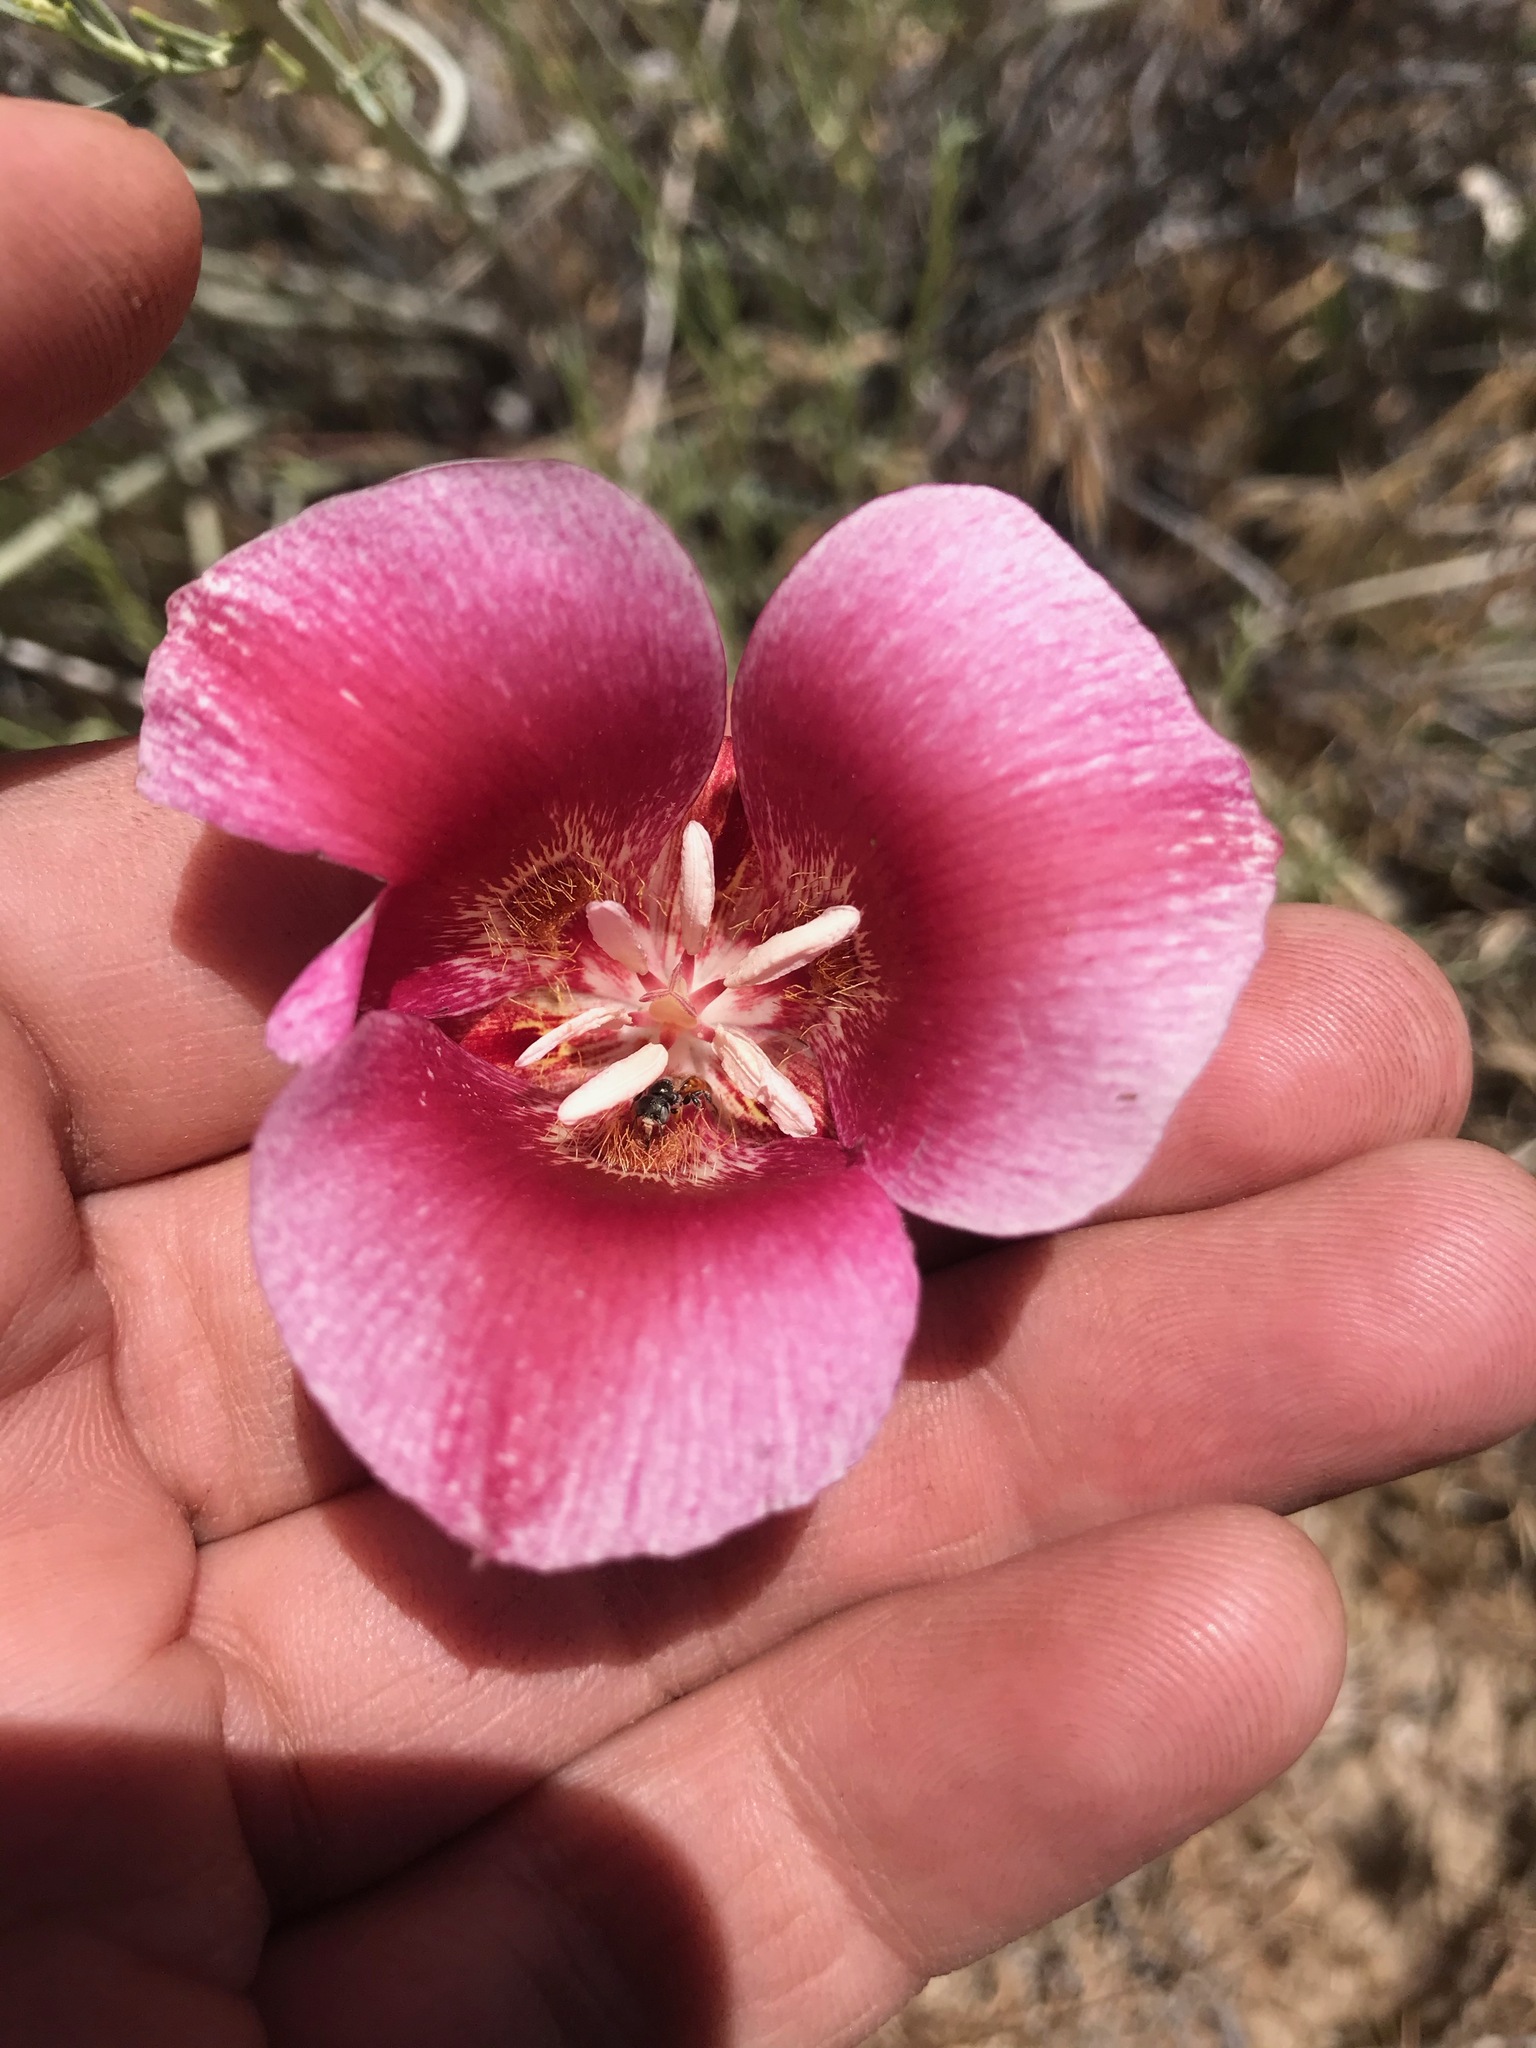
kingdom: Plantae
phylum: Tracheophyta
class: Liliopsida
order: Liliales
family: Liliaceae
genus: Calochortus
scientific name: Calochortus venustus
